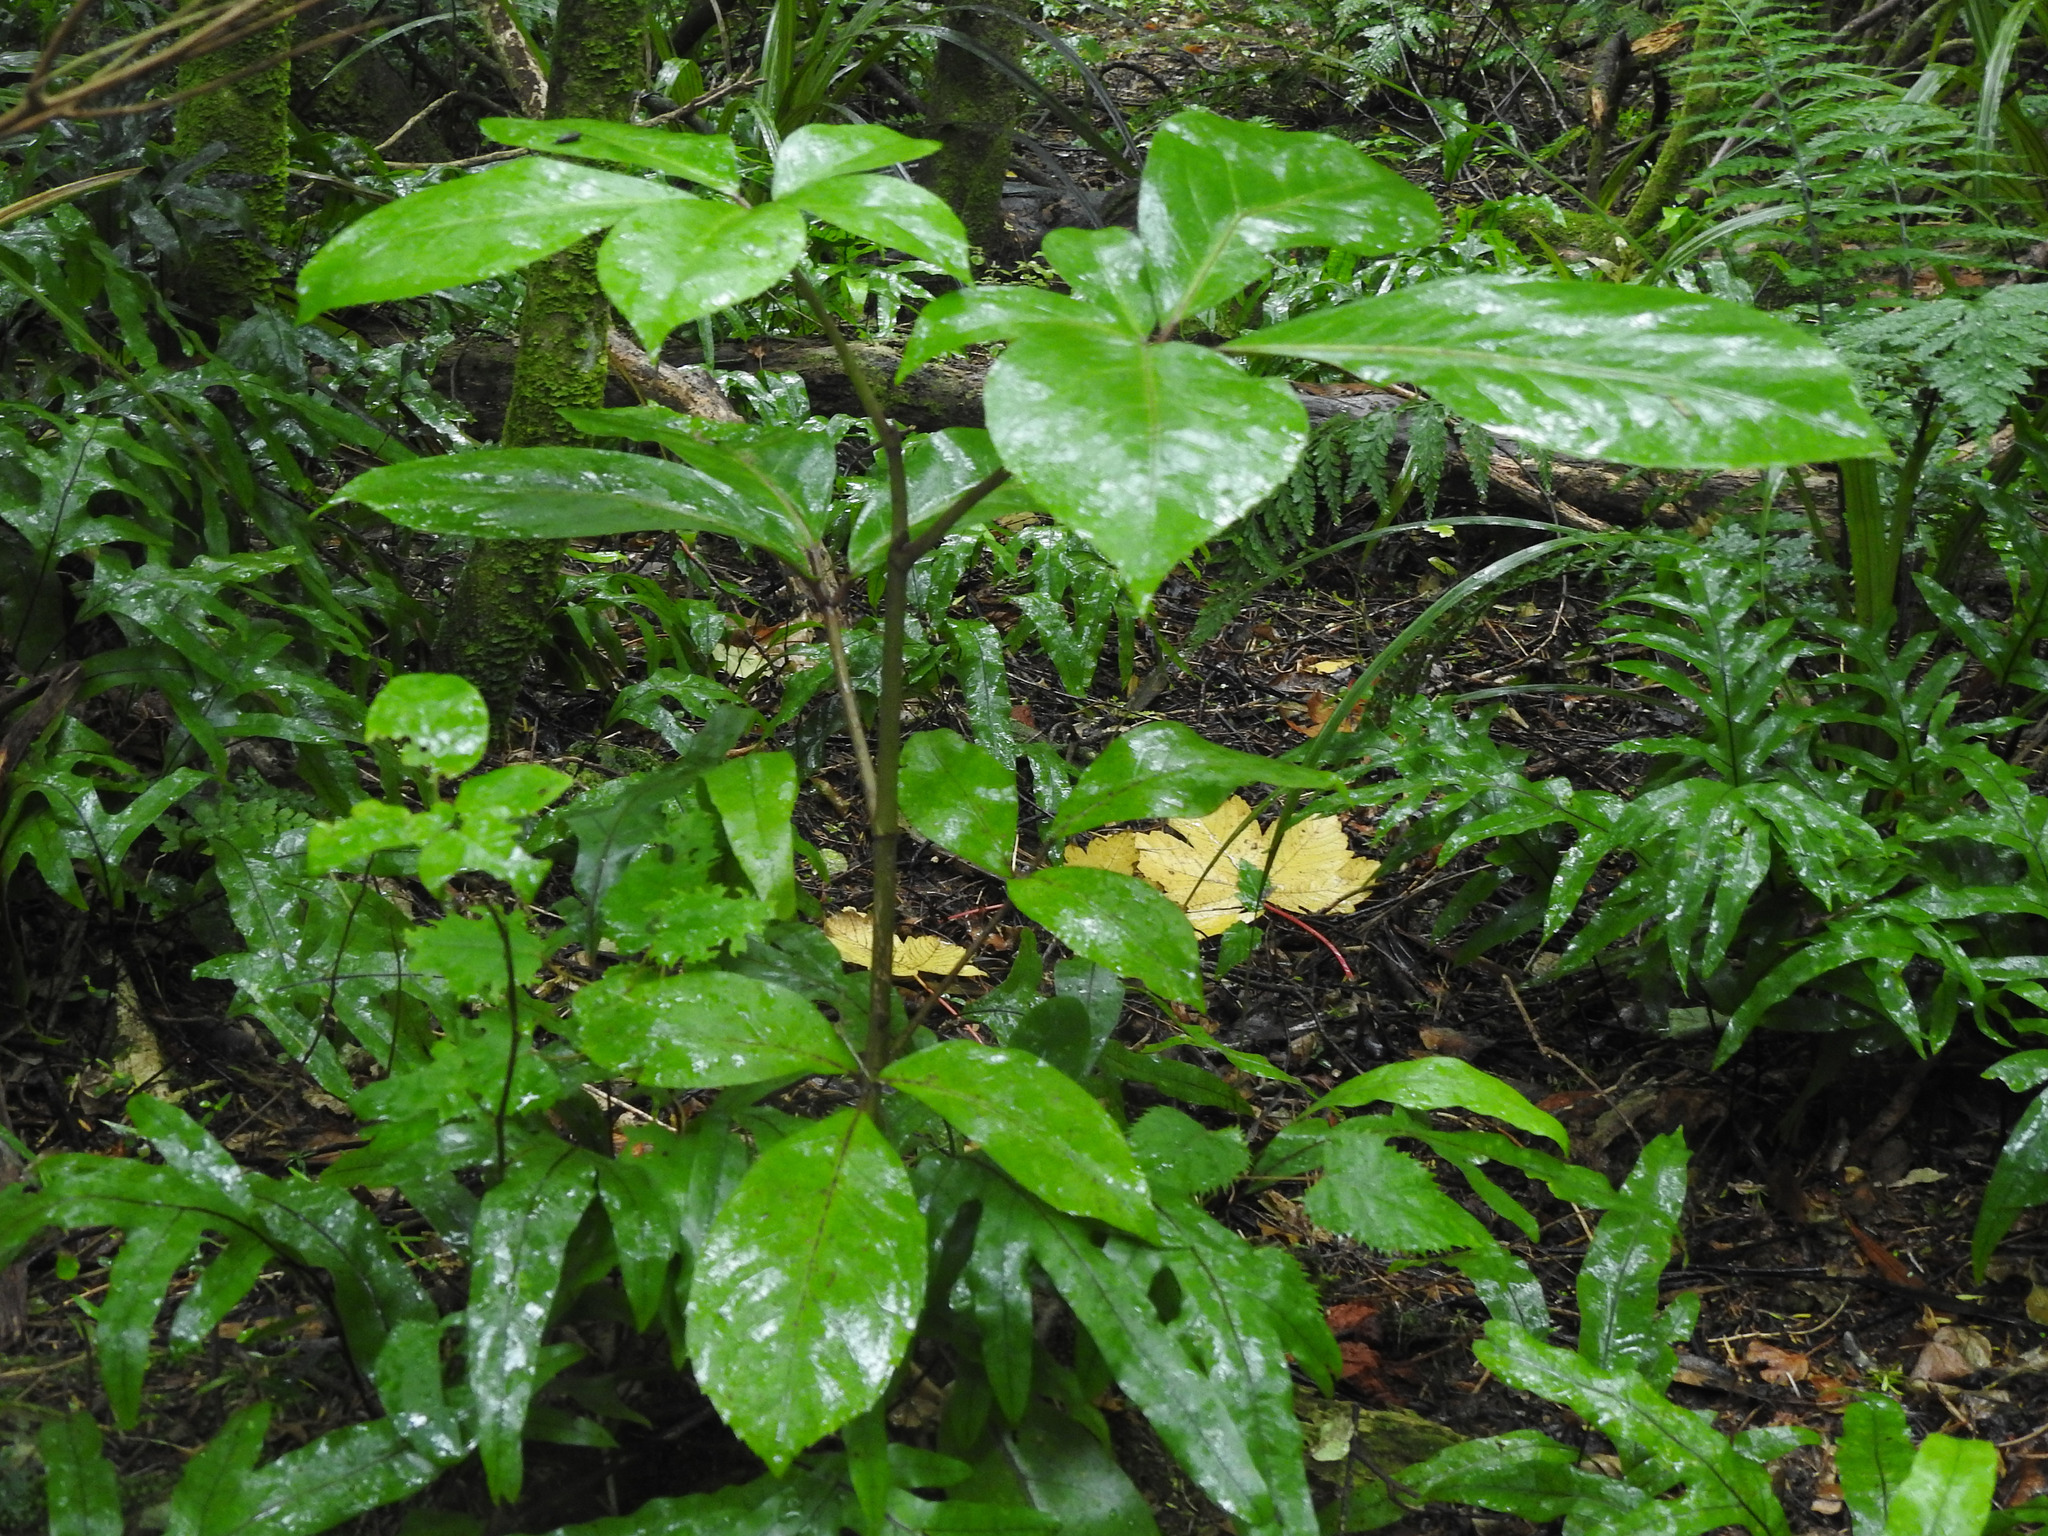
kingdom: Plantae
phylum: Tracheophyta
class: Magnoliopsida
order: Apiales
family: Araliaceae
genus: Neopanax
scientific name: Neopanax laetus
